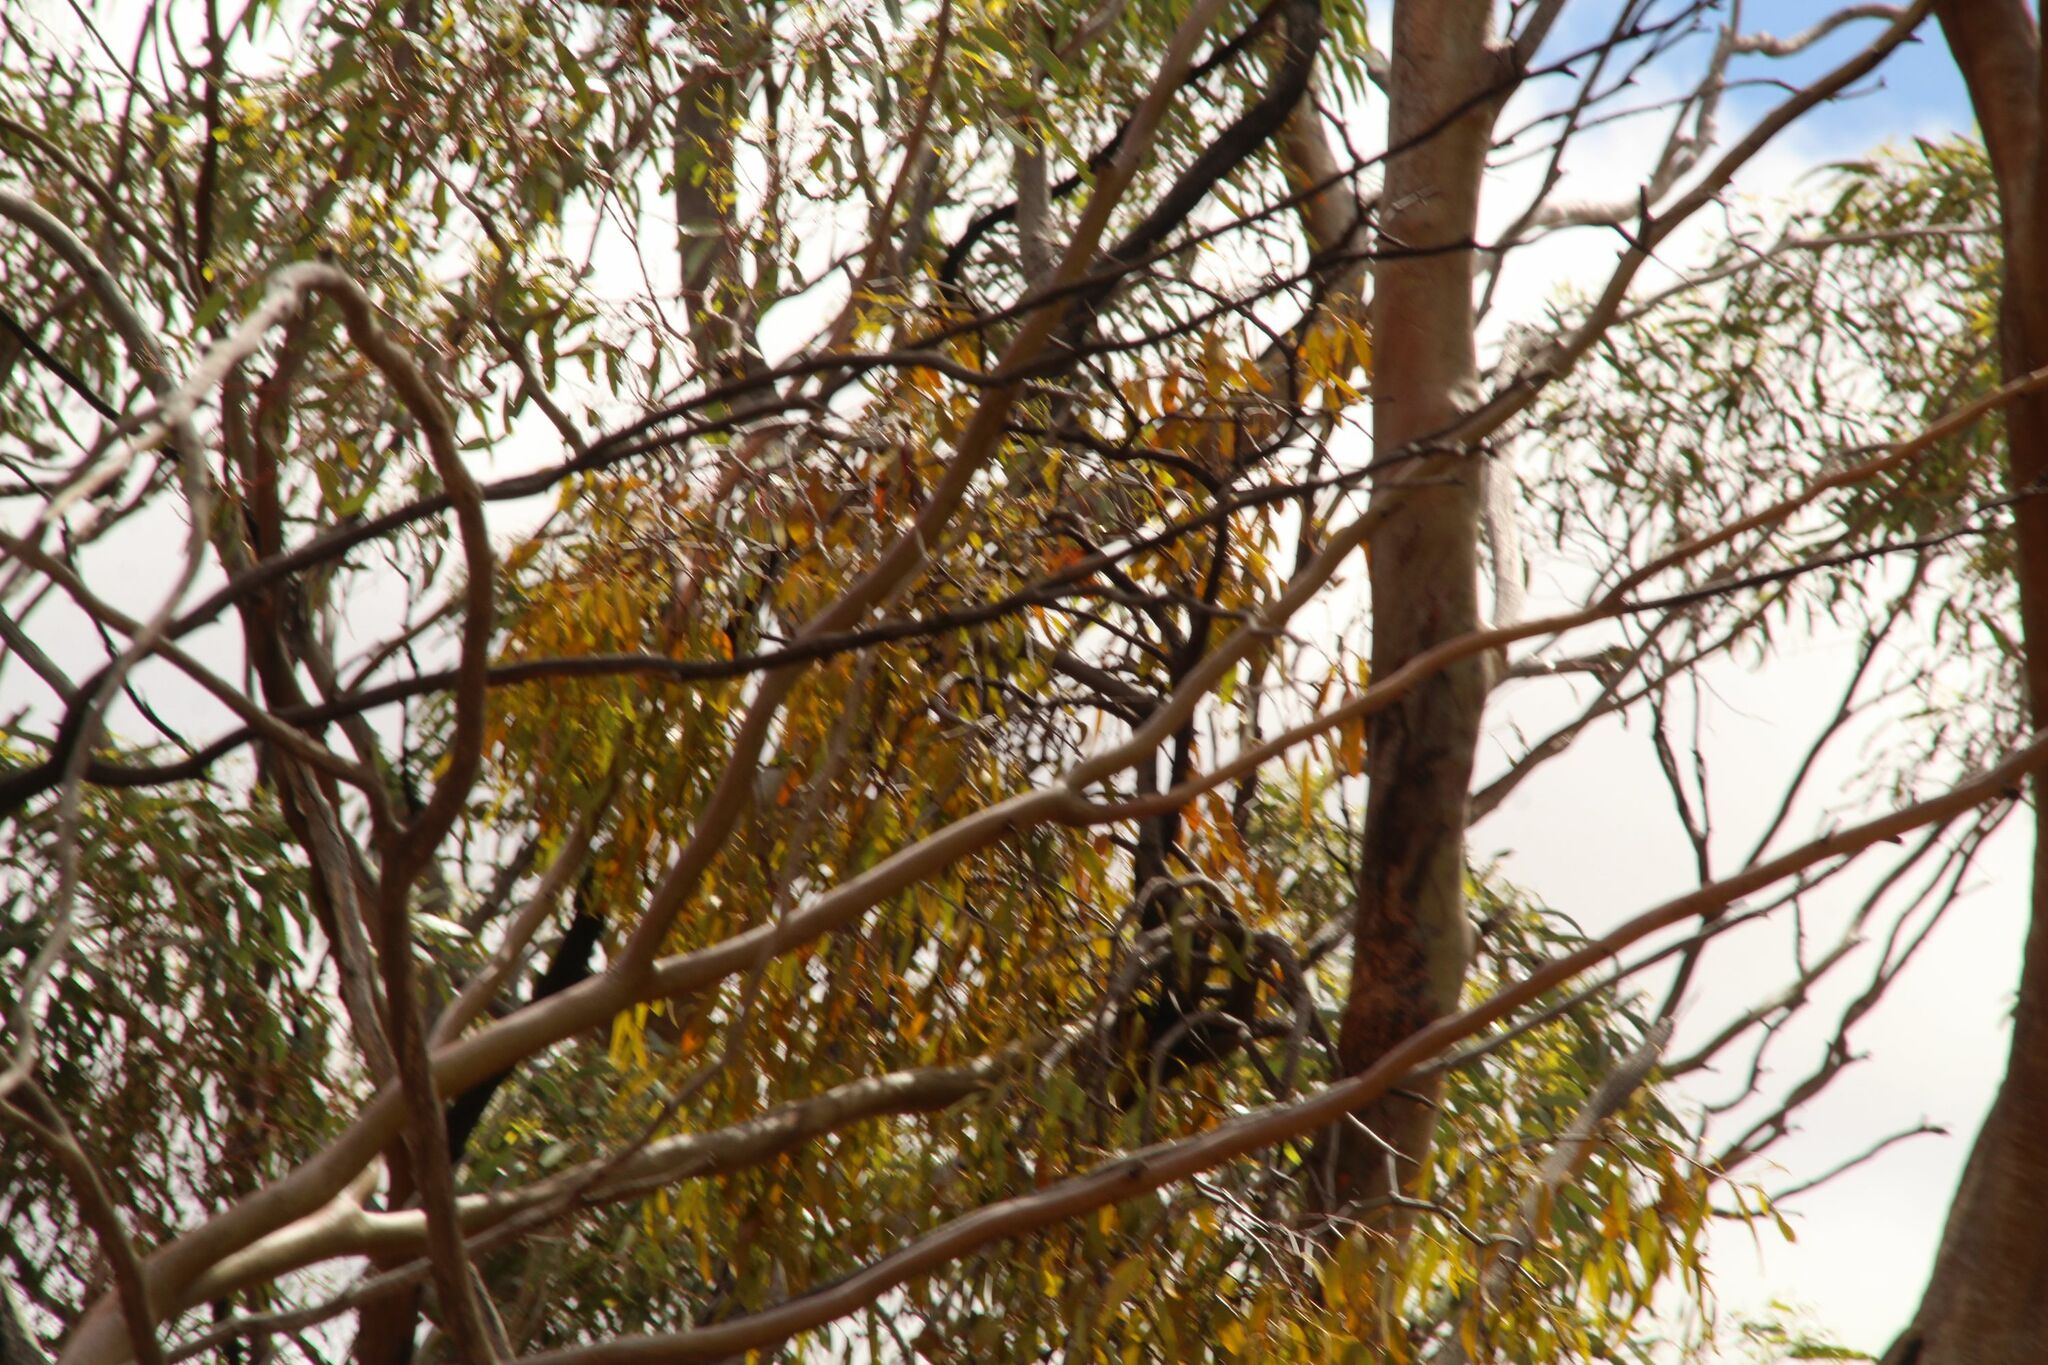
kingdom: Plantae
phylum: Tracheophyta
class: Magnoliopsida
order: Santalales
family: Loranthaceae
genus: Amyema
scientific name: Amyema miquelii
